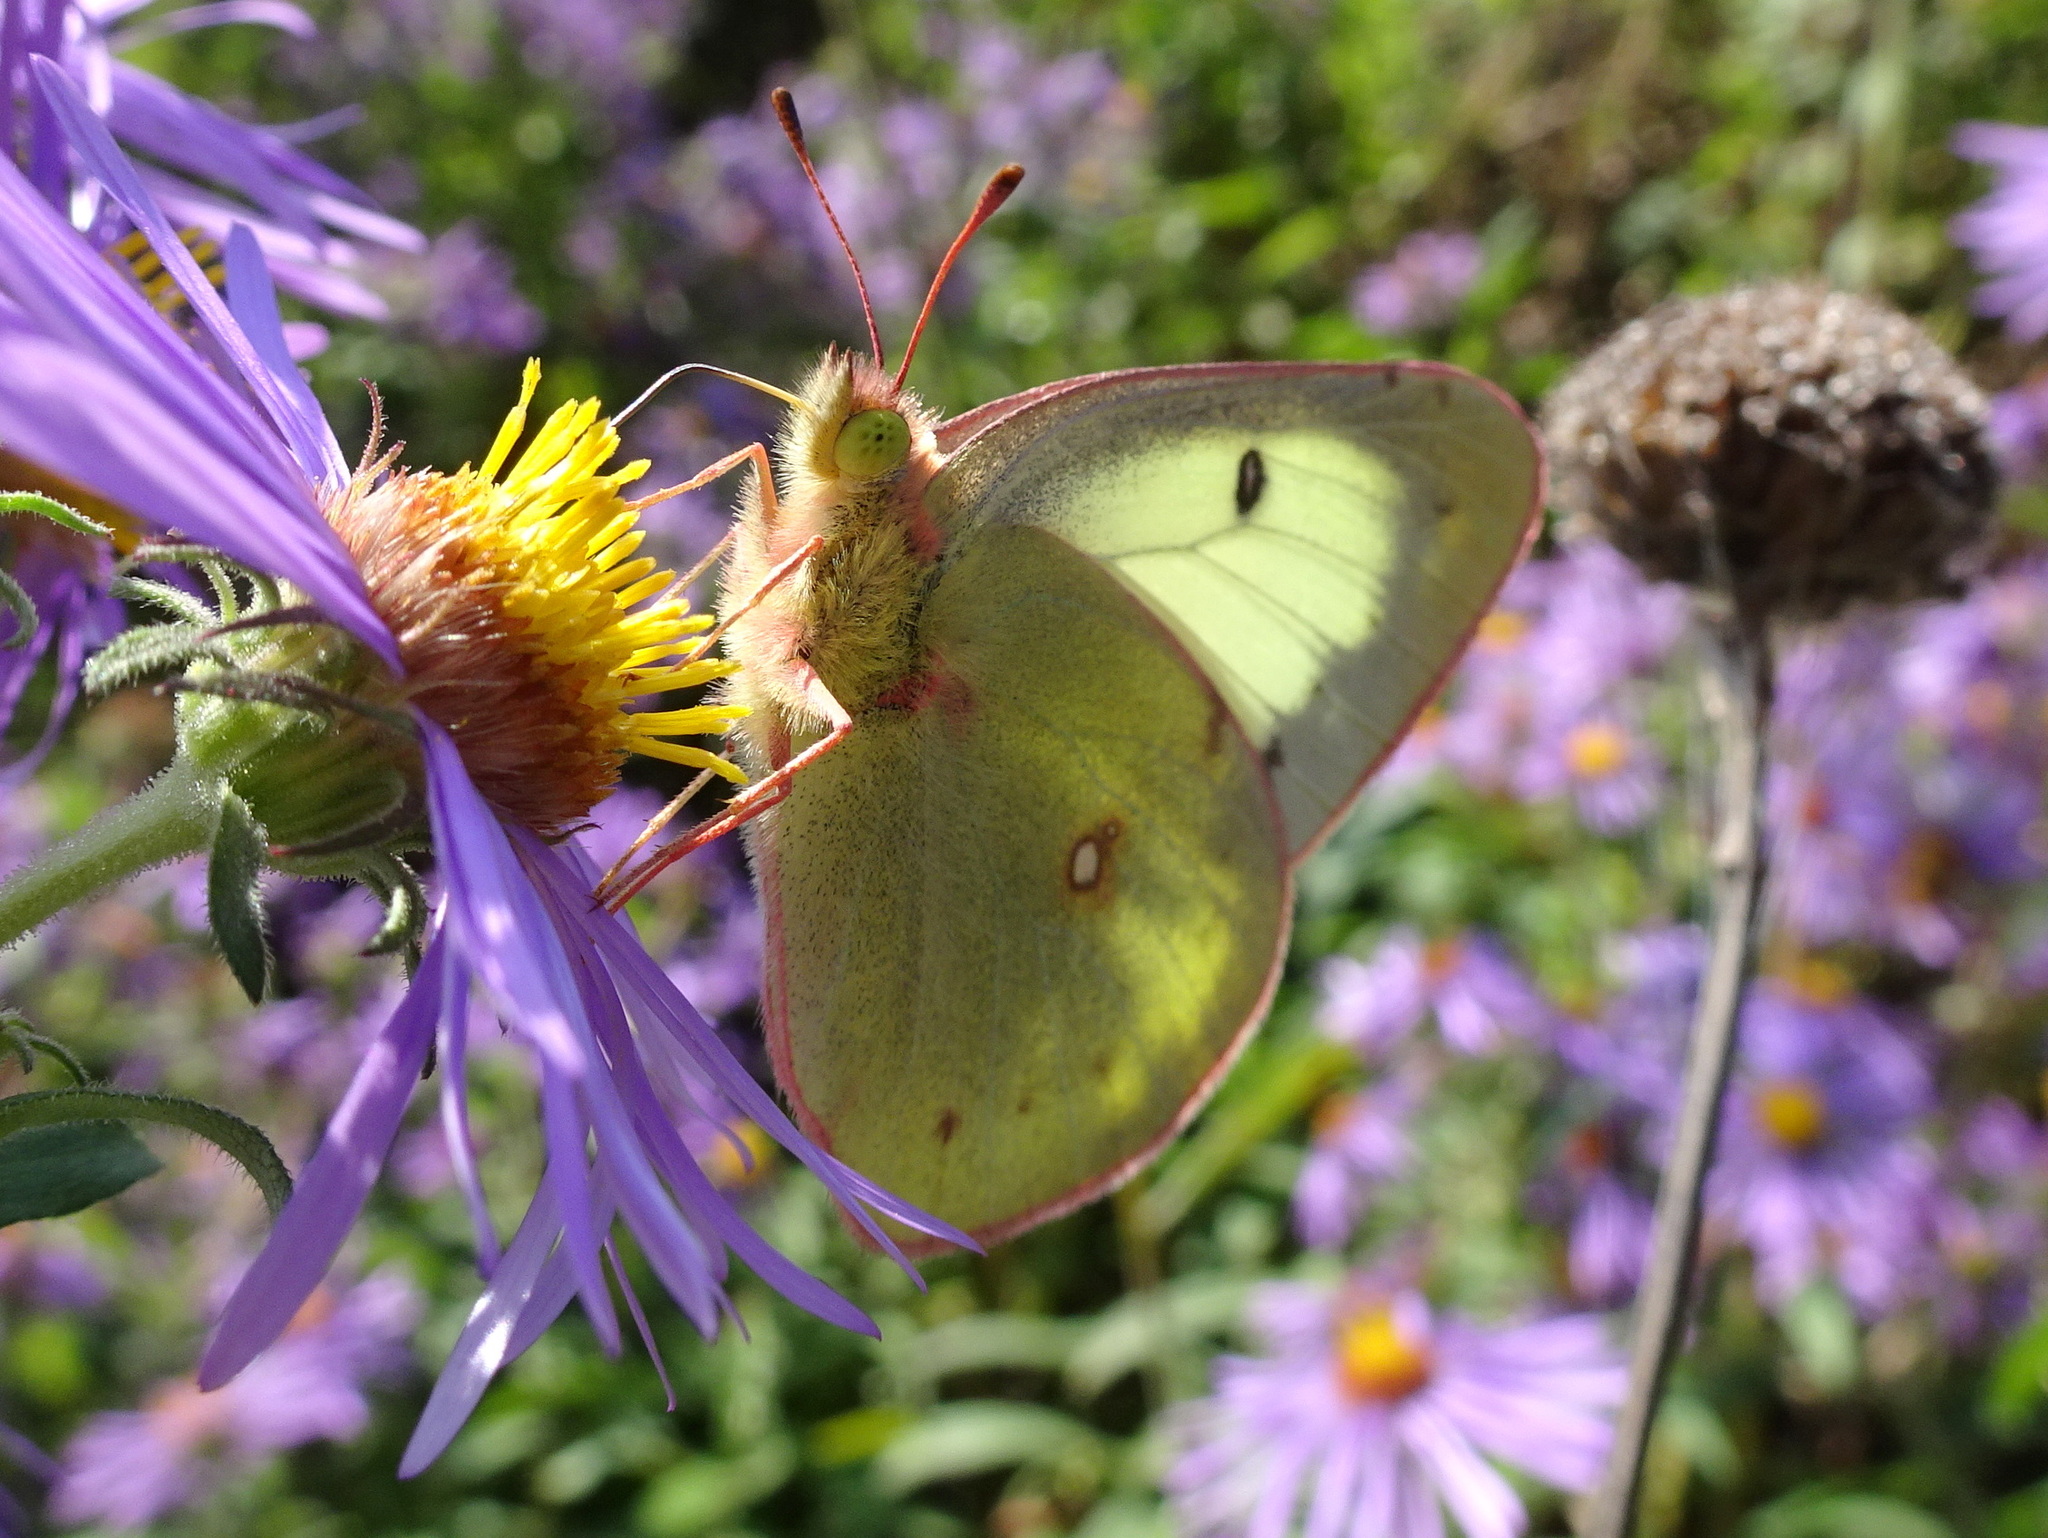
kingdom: Animalia
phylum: Arthropoda
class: Insecta
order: Lepidoptera
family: Pieridae
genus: Colias
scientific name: Colias philodice
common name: Clouded sulphur
